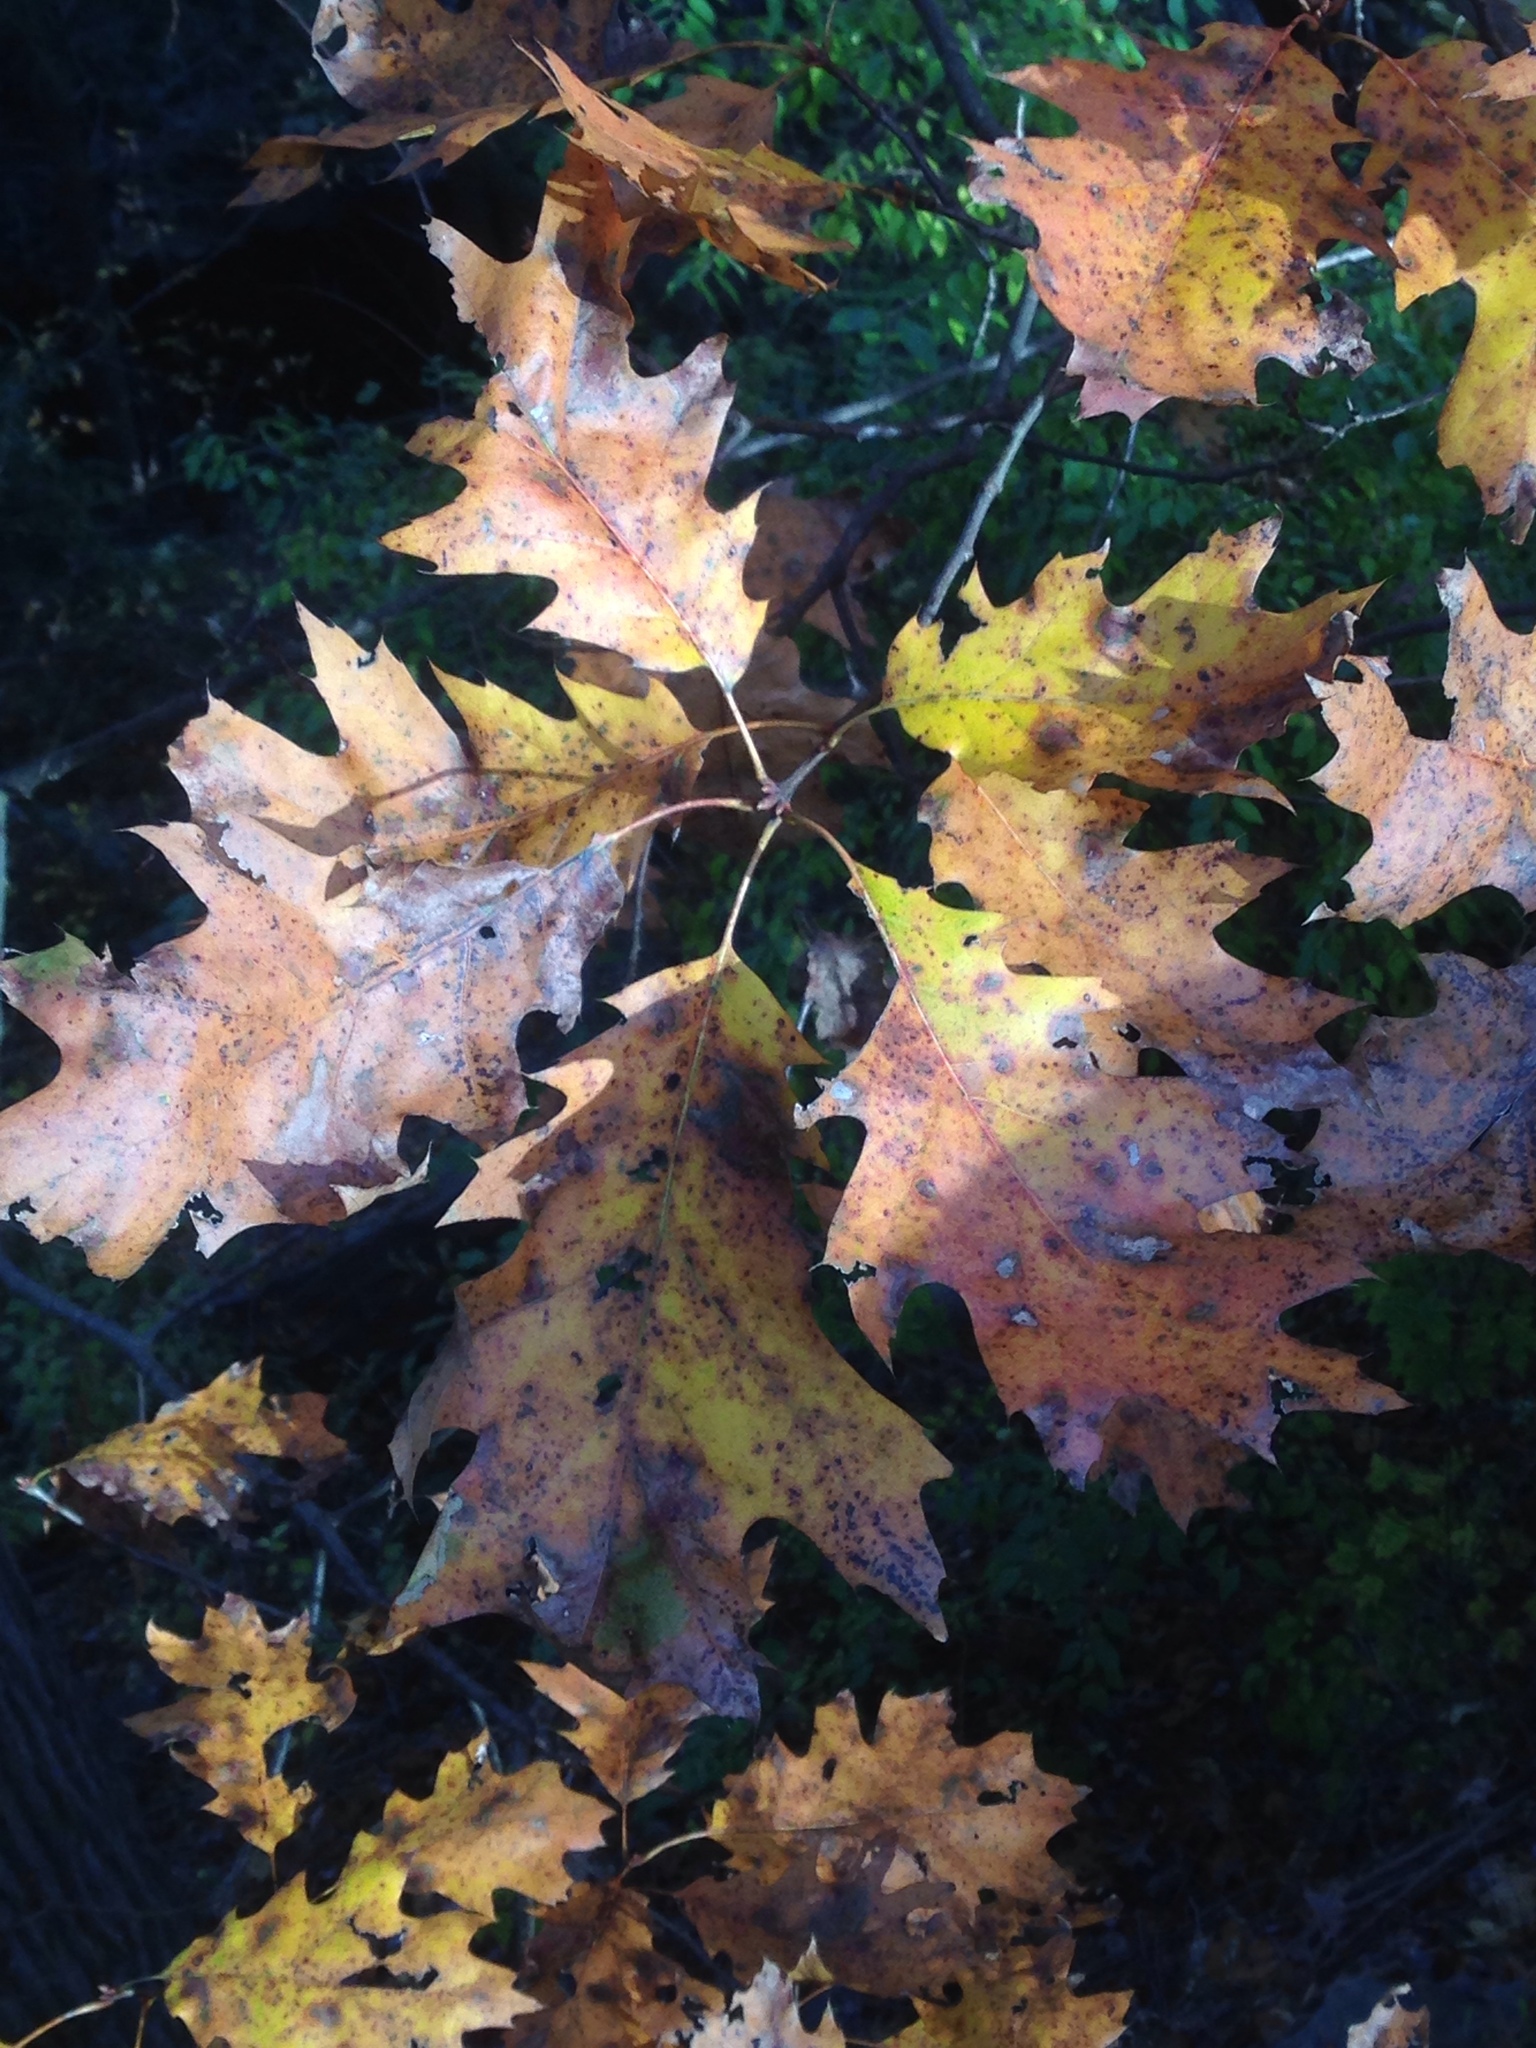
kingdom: Plantae
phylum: Tracheophyta
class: Magnoliopsida
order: Fagales
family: Fagaceae
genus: Quercus
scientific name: Quercus rubra
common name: Red oak
